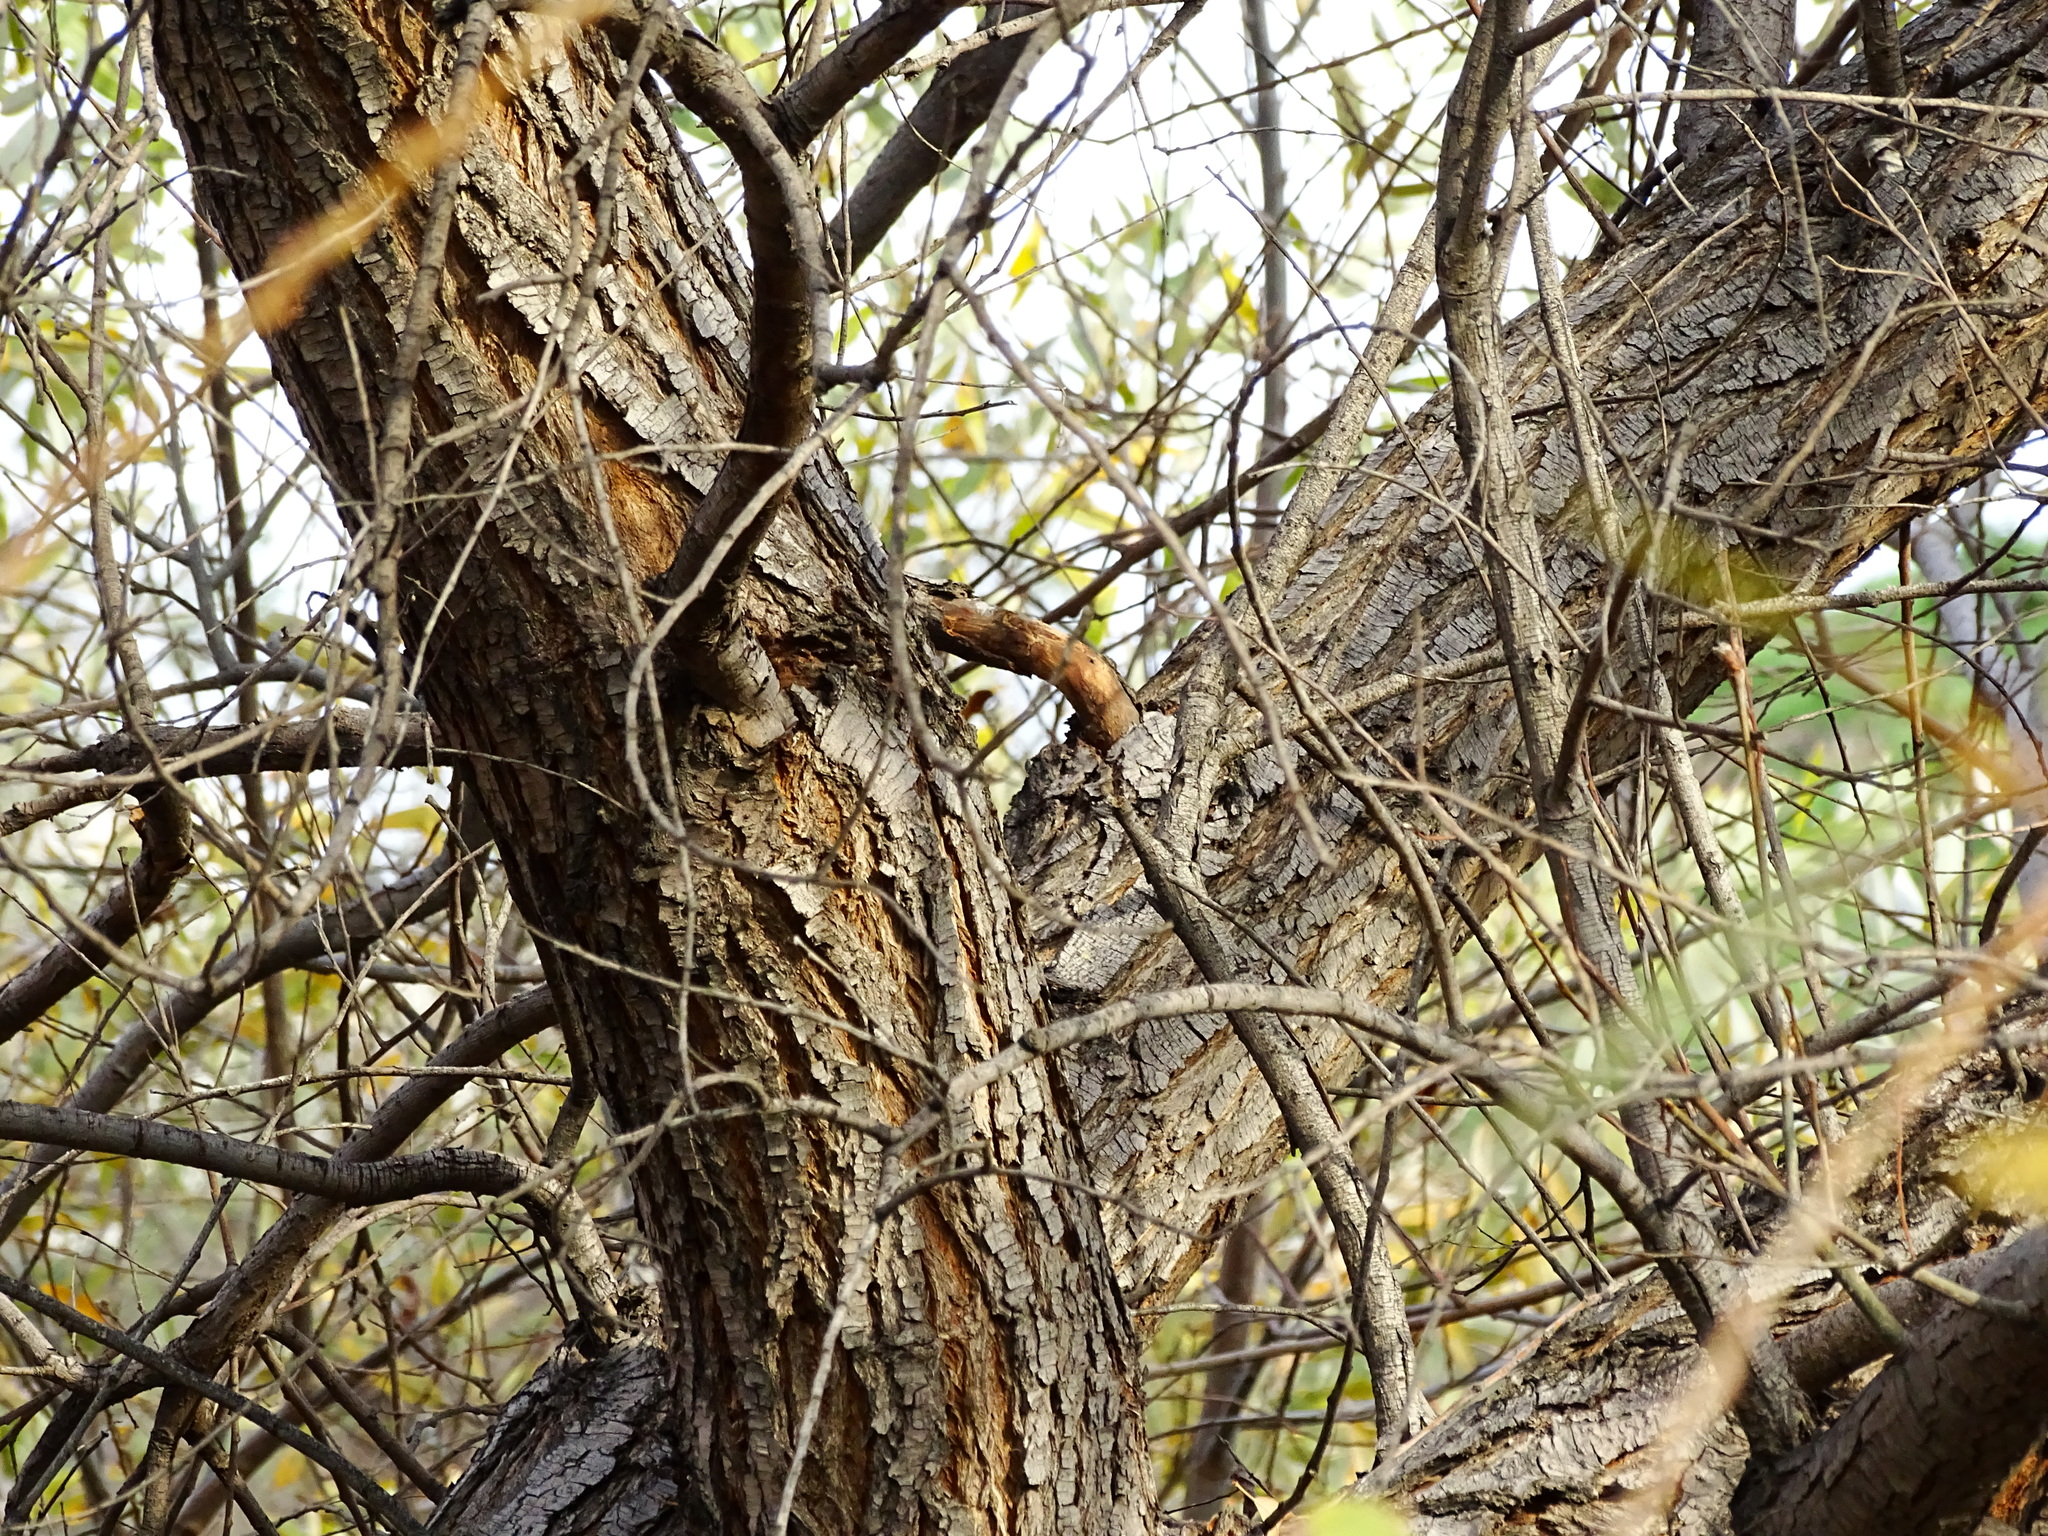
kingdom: Plantae
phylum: Tracheophyta
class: Magnoliopsida
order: Malpighiales
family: Salicaceae
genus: Salix
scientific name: Salix laevigata
